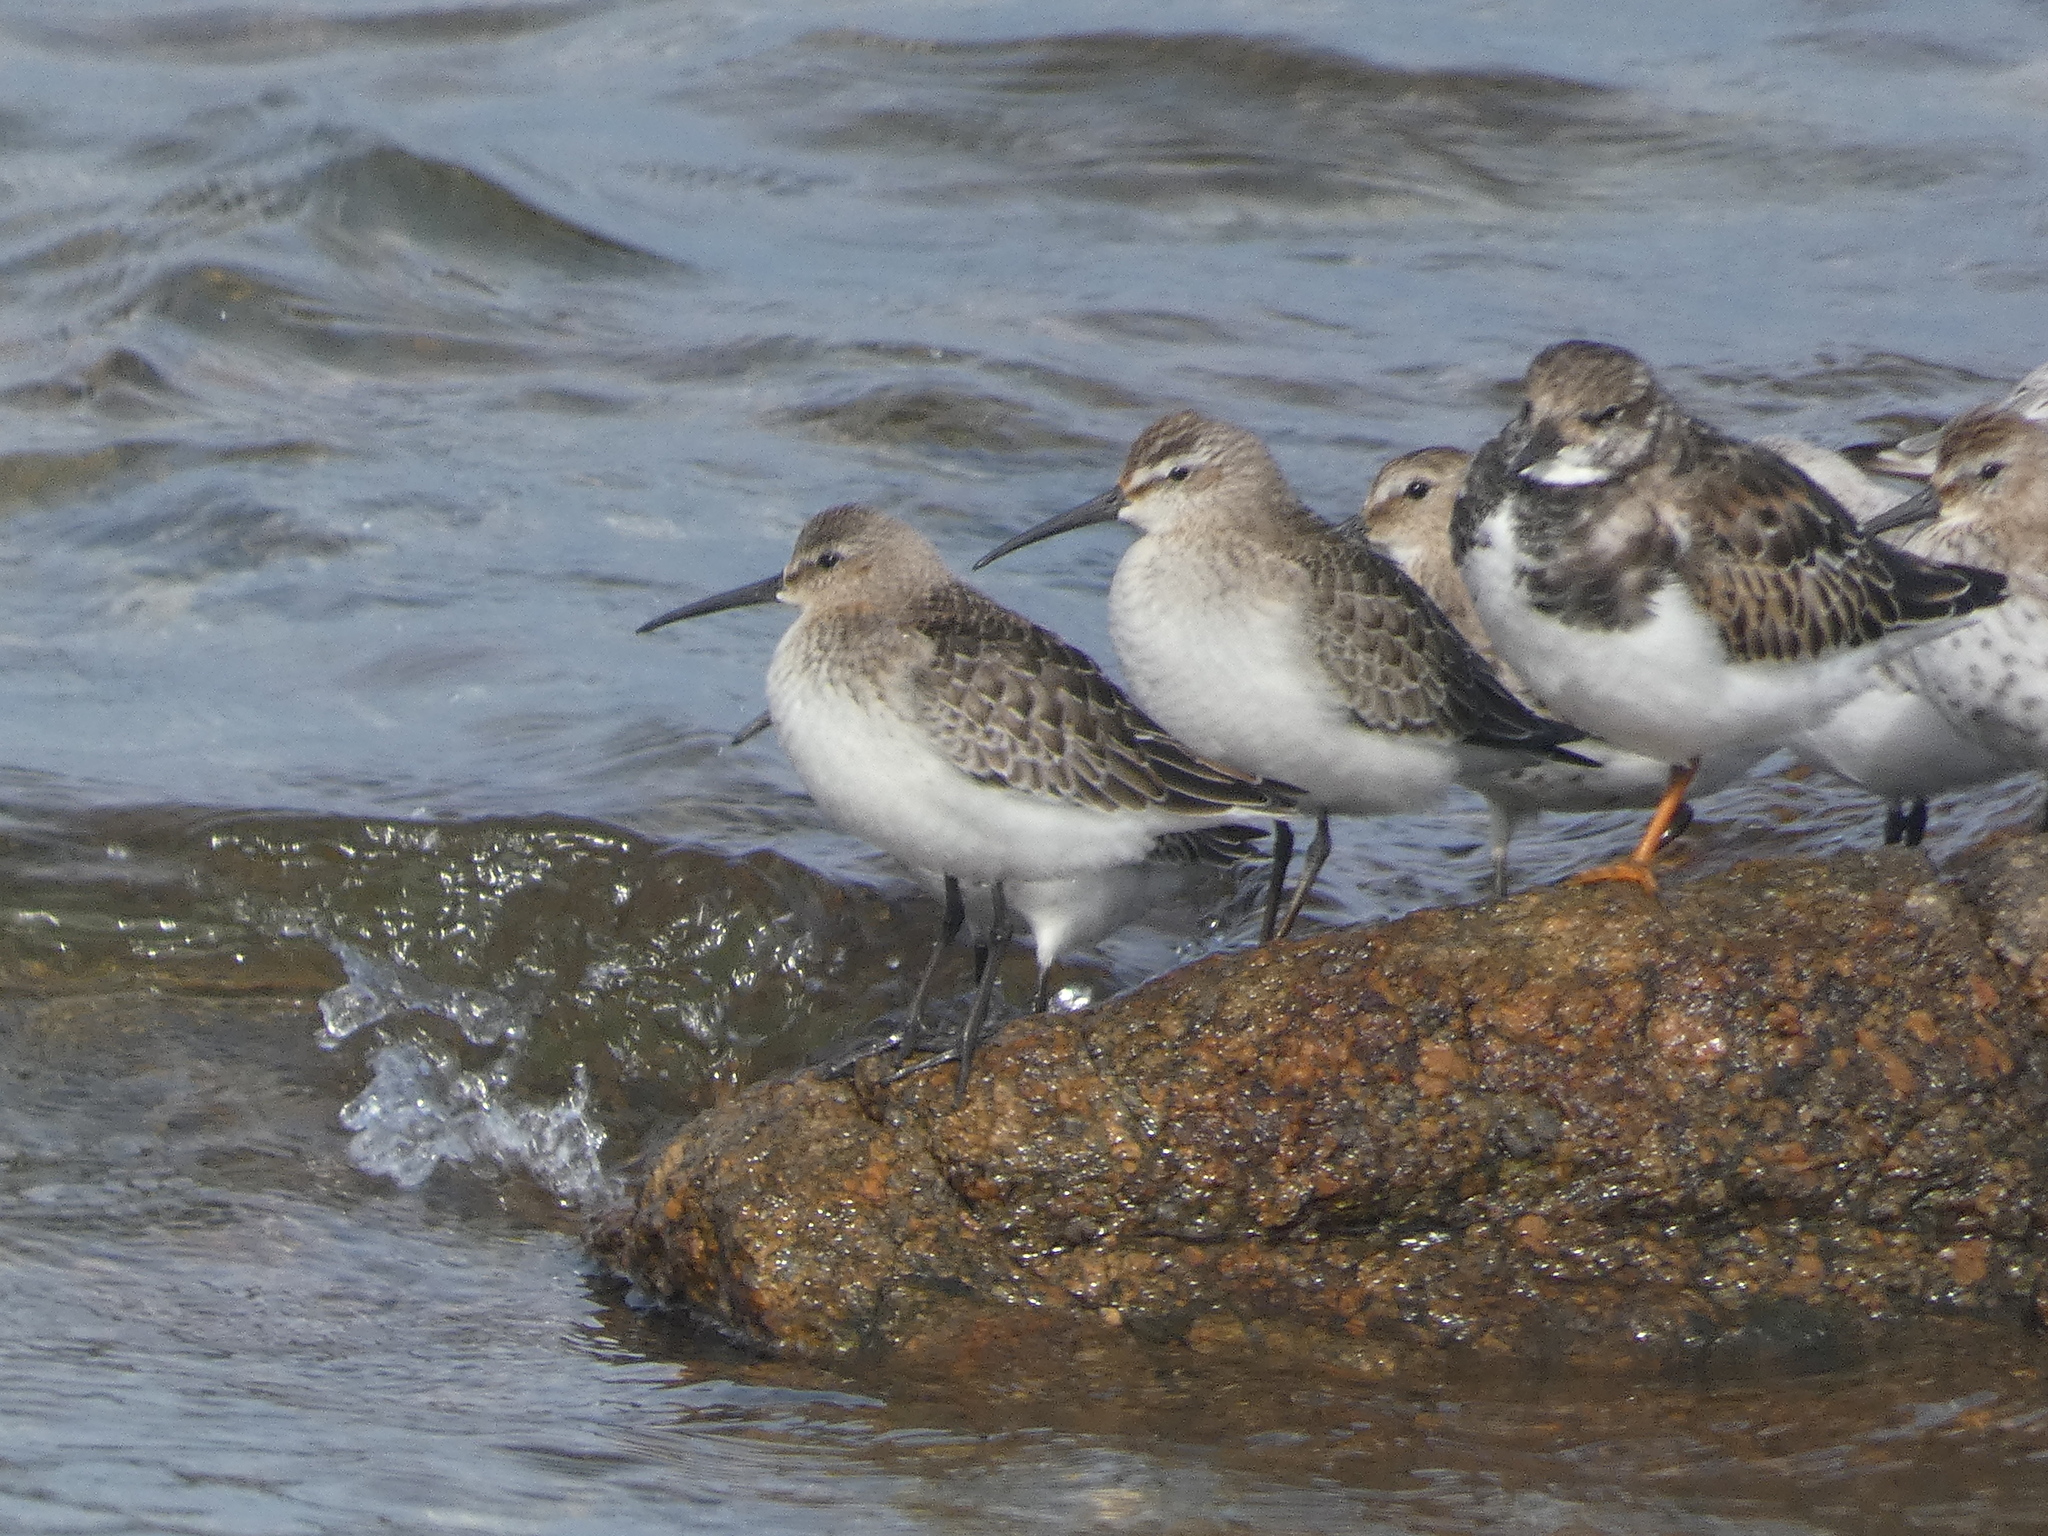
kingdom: Animalia
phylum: Chordata
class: Aves
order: Charadriiformes
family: Scolopacidae
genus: Calidris
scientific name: Calidris ferruginea
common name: Curlew sandpiper
